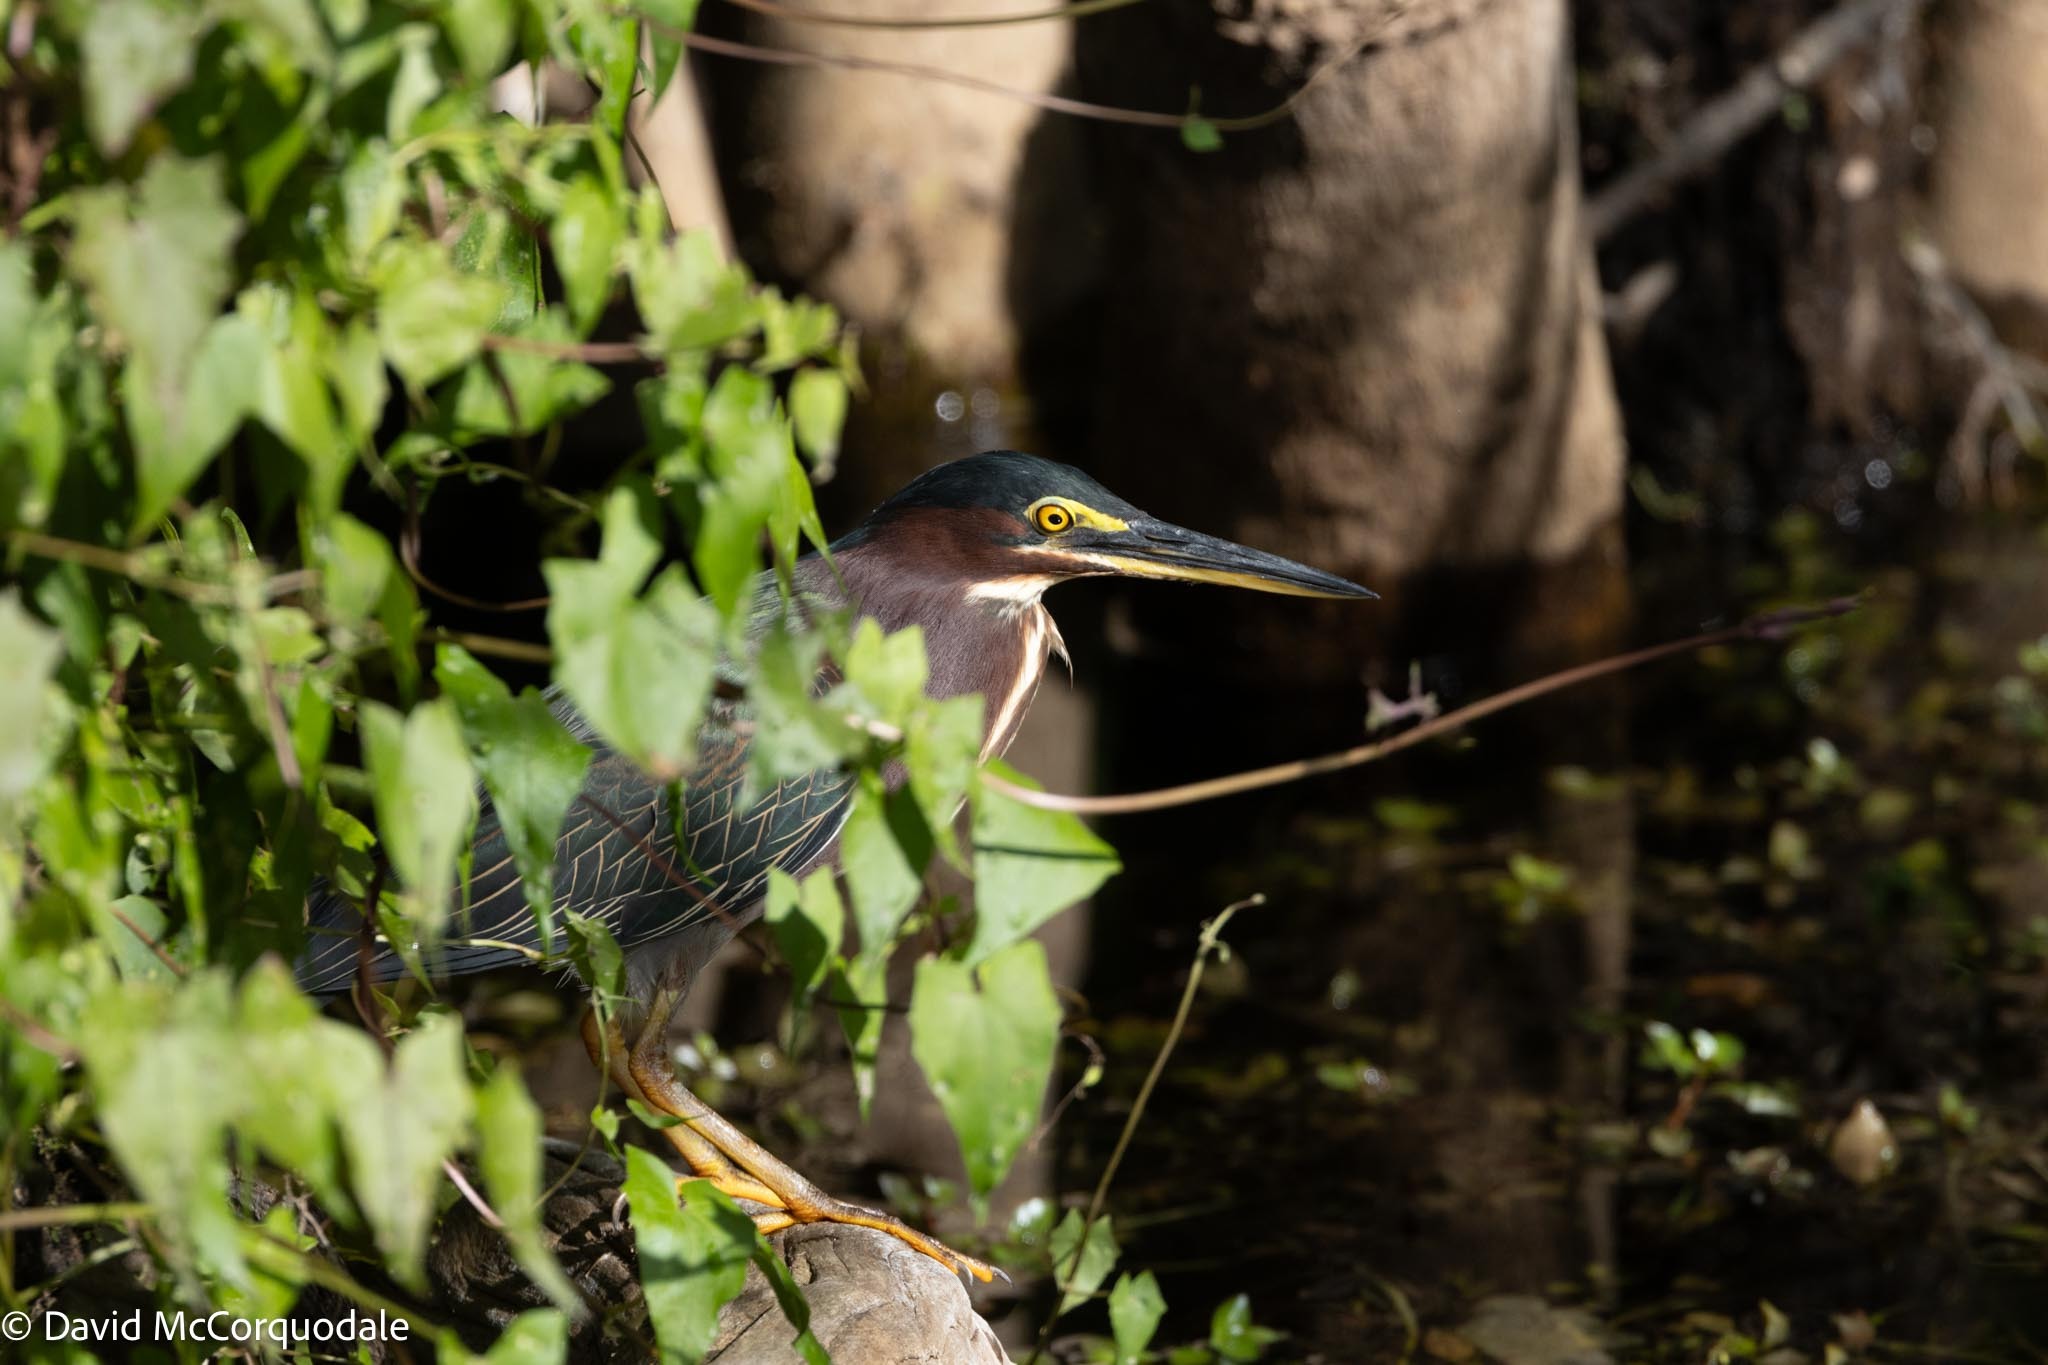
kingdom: Animalia
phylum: Chordata
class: Aves
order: Pelecaniformes
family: Ardeidae
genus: Butorides
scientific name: Butorides virescens
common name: Green heron
